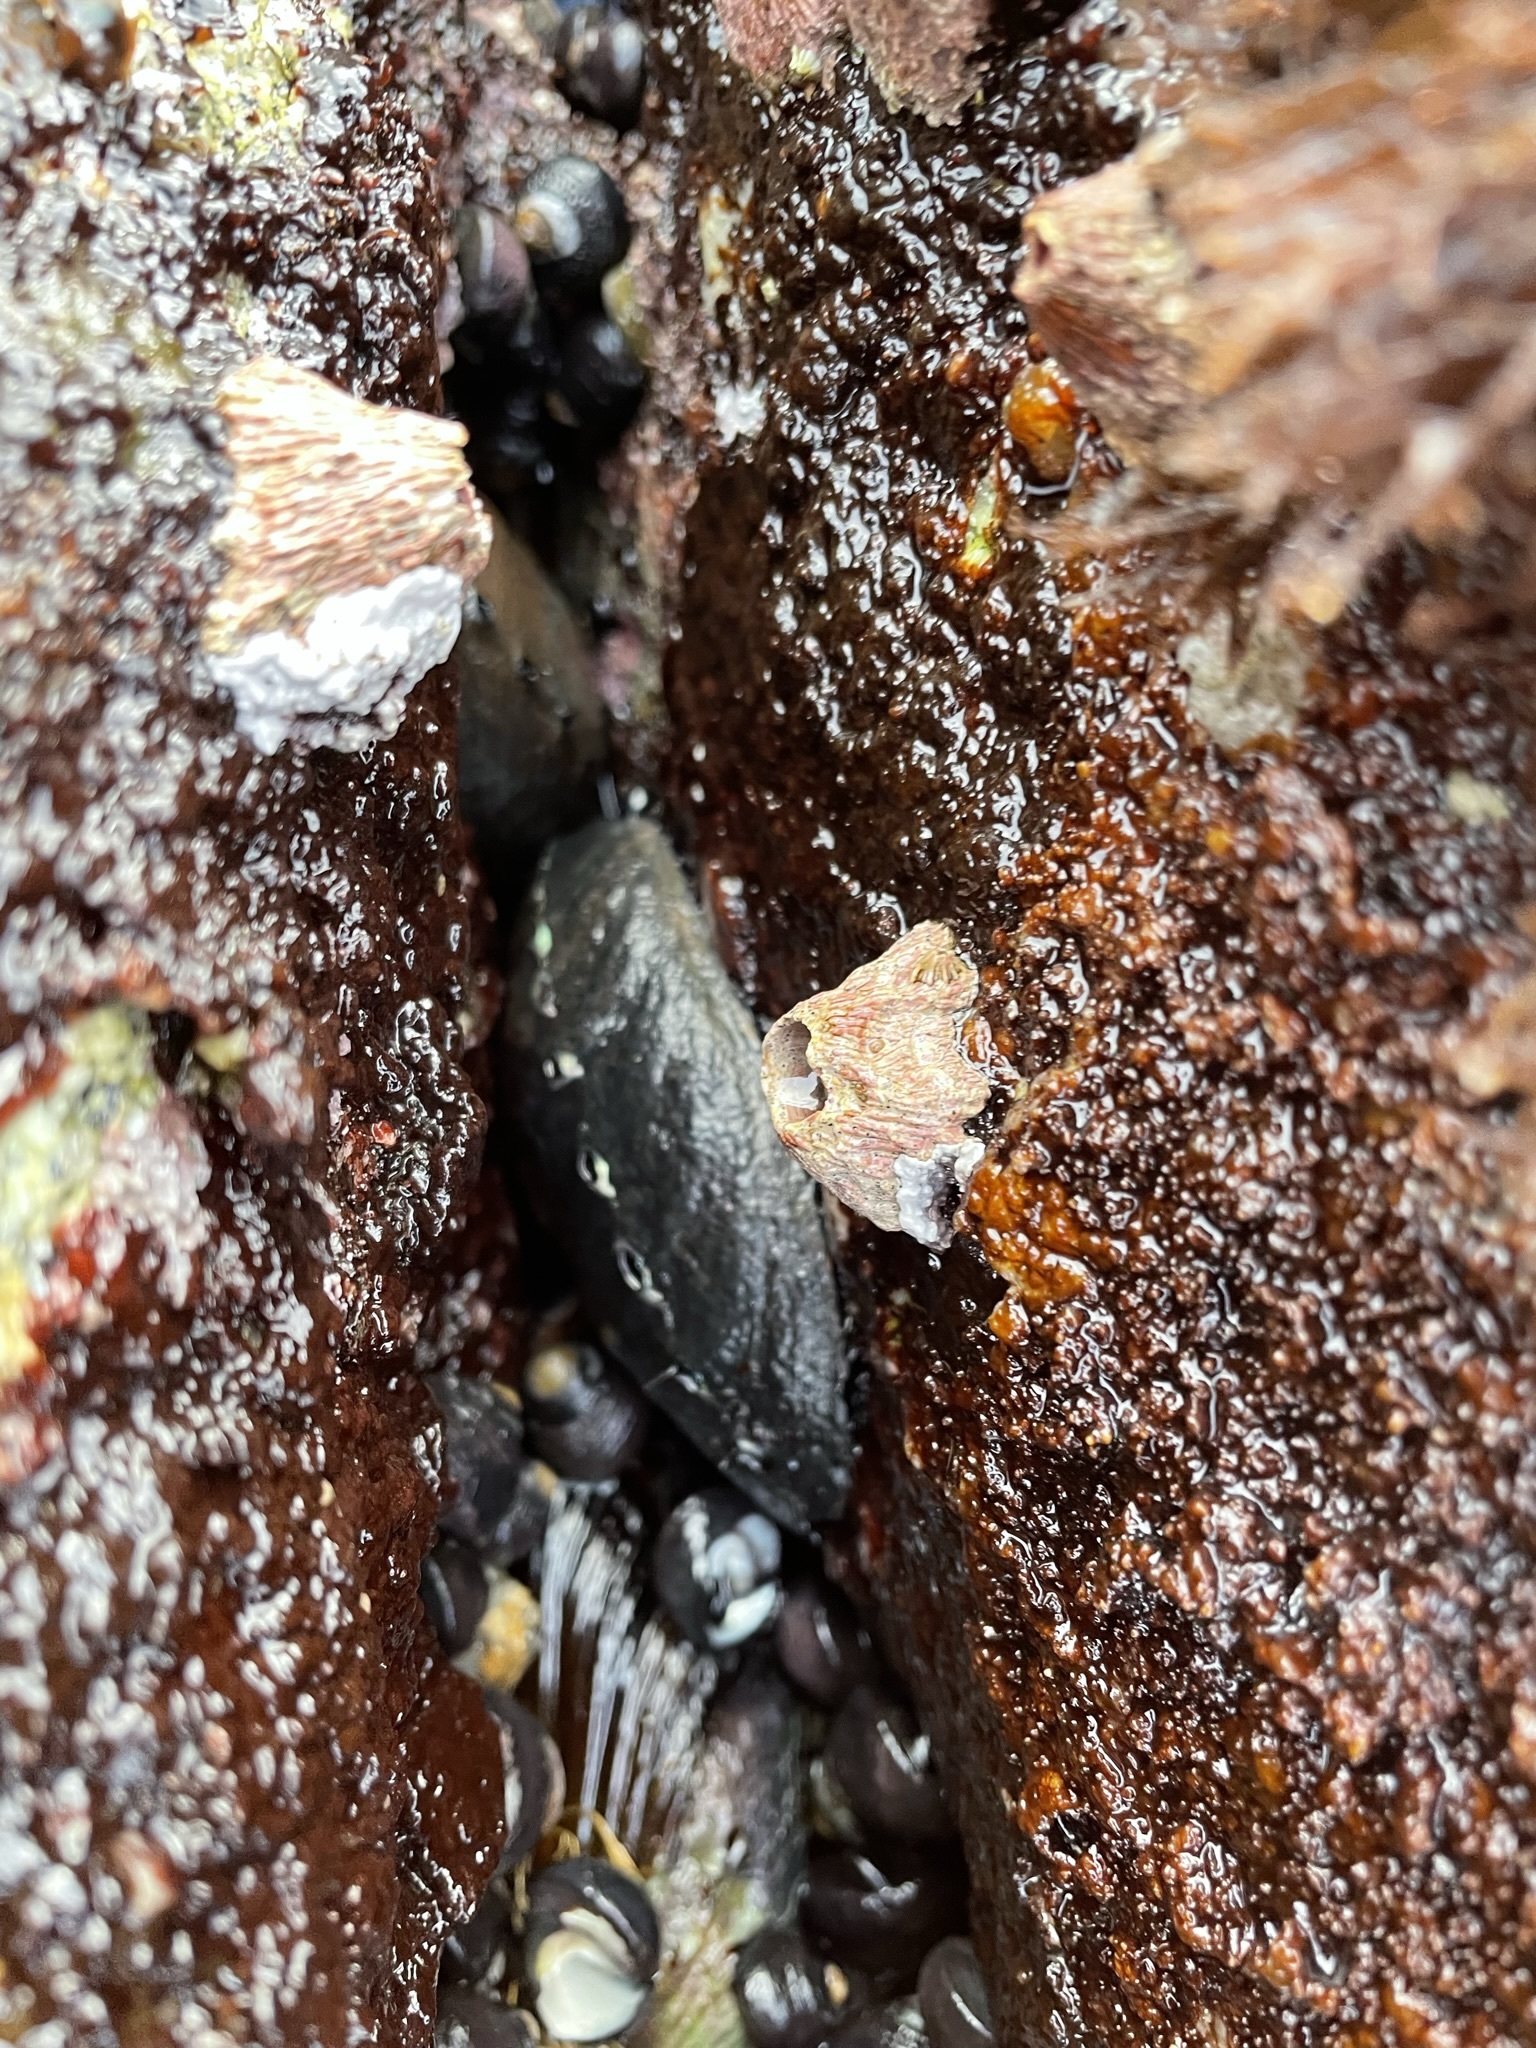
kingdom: Animalia
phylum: Mollusca
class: Gastropoda
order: Lepetellida
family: Haliotidae
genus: Haliotis
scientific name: Haliotis cracherodii
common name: Black abalone
